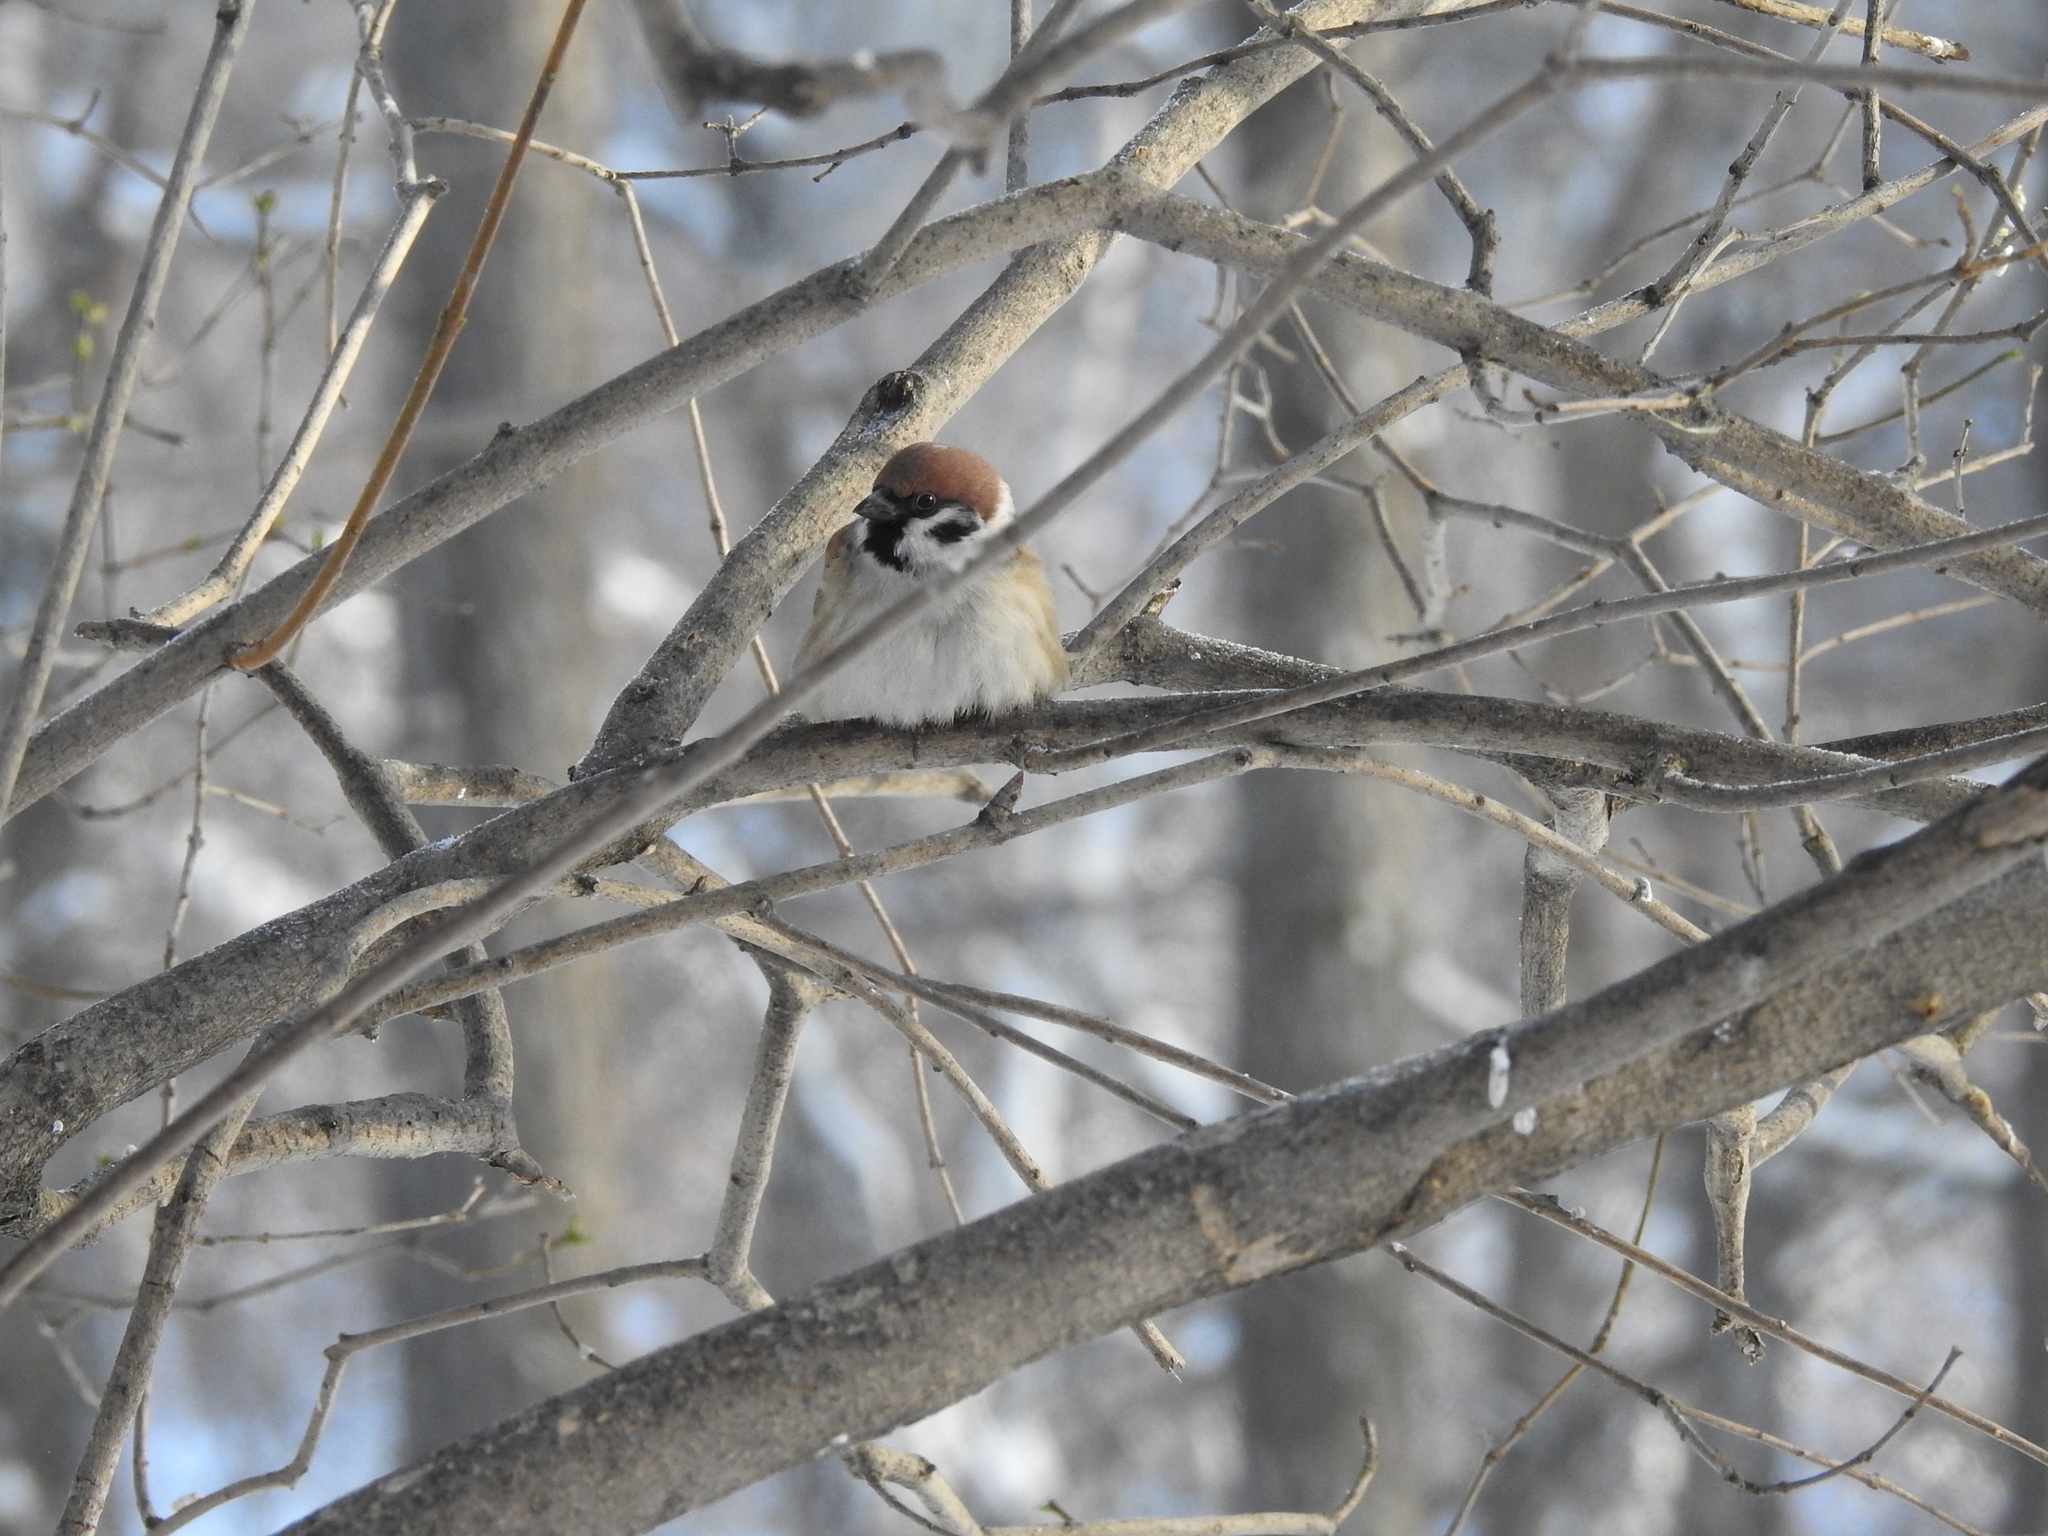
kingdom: Animalia
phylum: Chordata
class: Aves
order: Passeriformes
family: Passeridae
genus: Passer
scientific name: Passer montanus
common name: Eurasian tree sparrow
